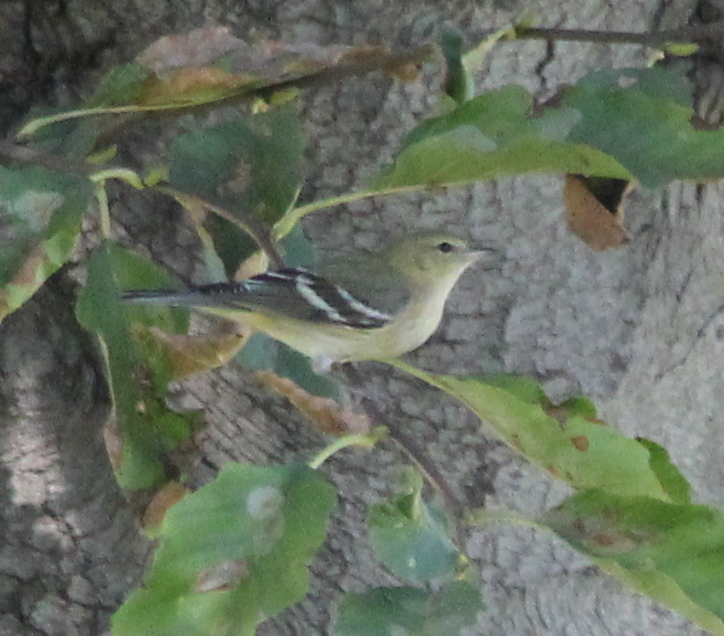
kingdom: Animalia
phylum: Chordata
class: Aves
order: Passeriformes
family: Parulidae
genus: Setophaga
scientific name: Setophaga castanea
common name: Bay-breasted warbler
